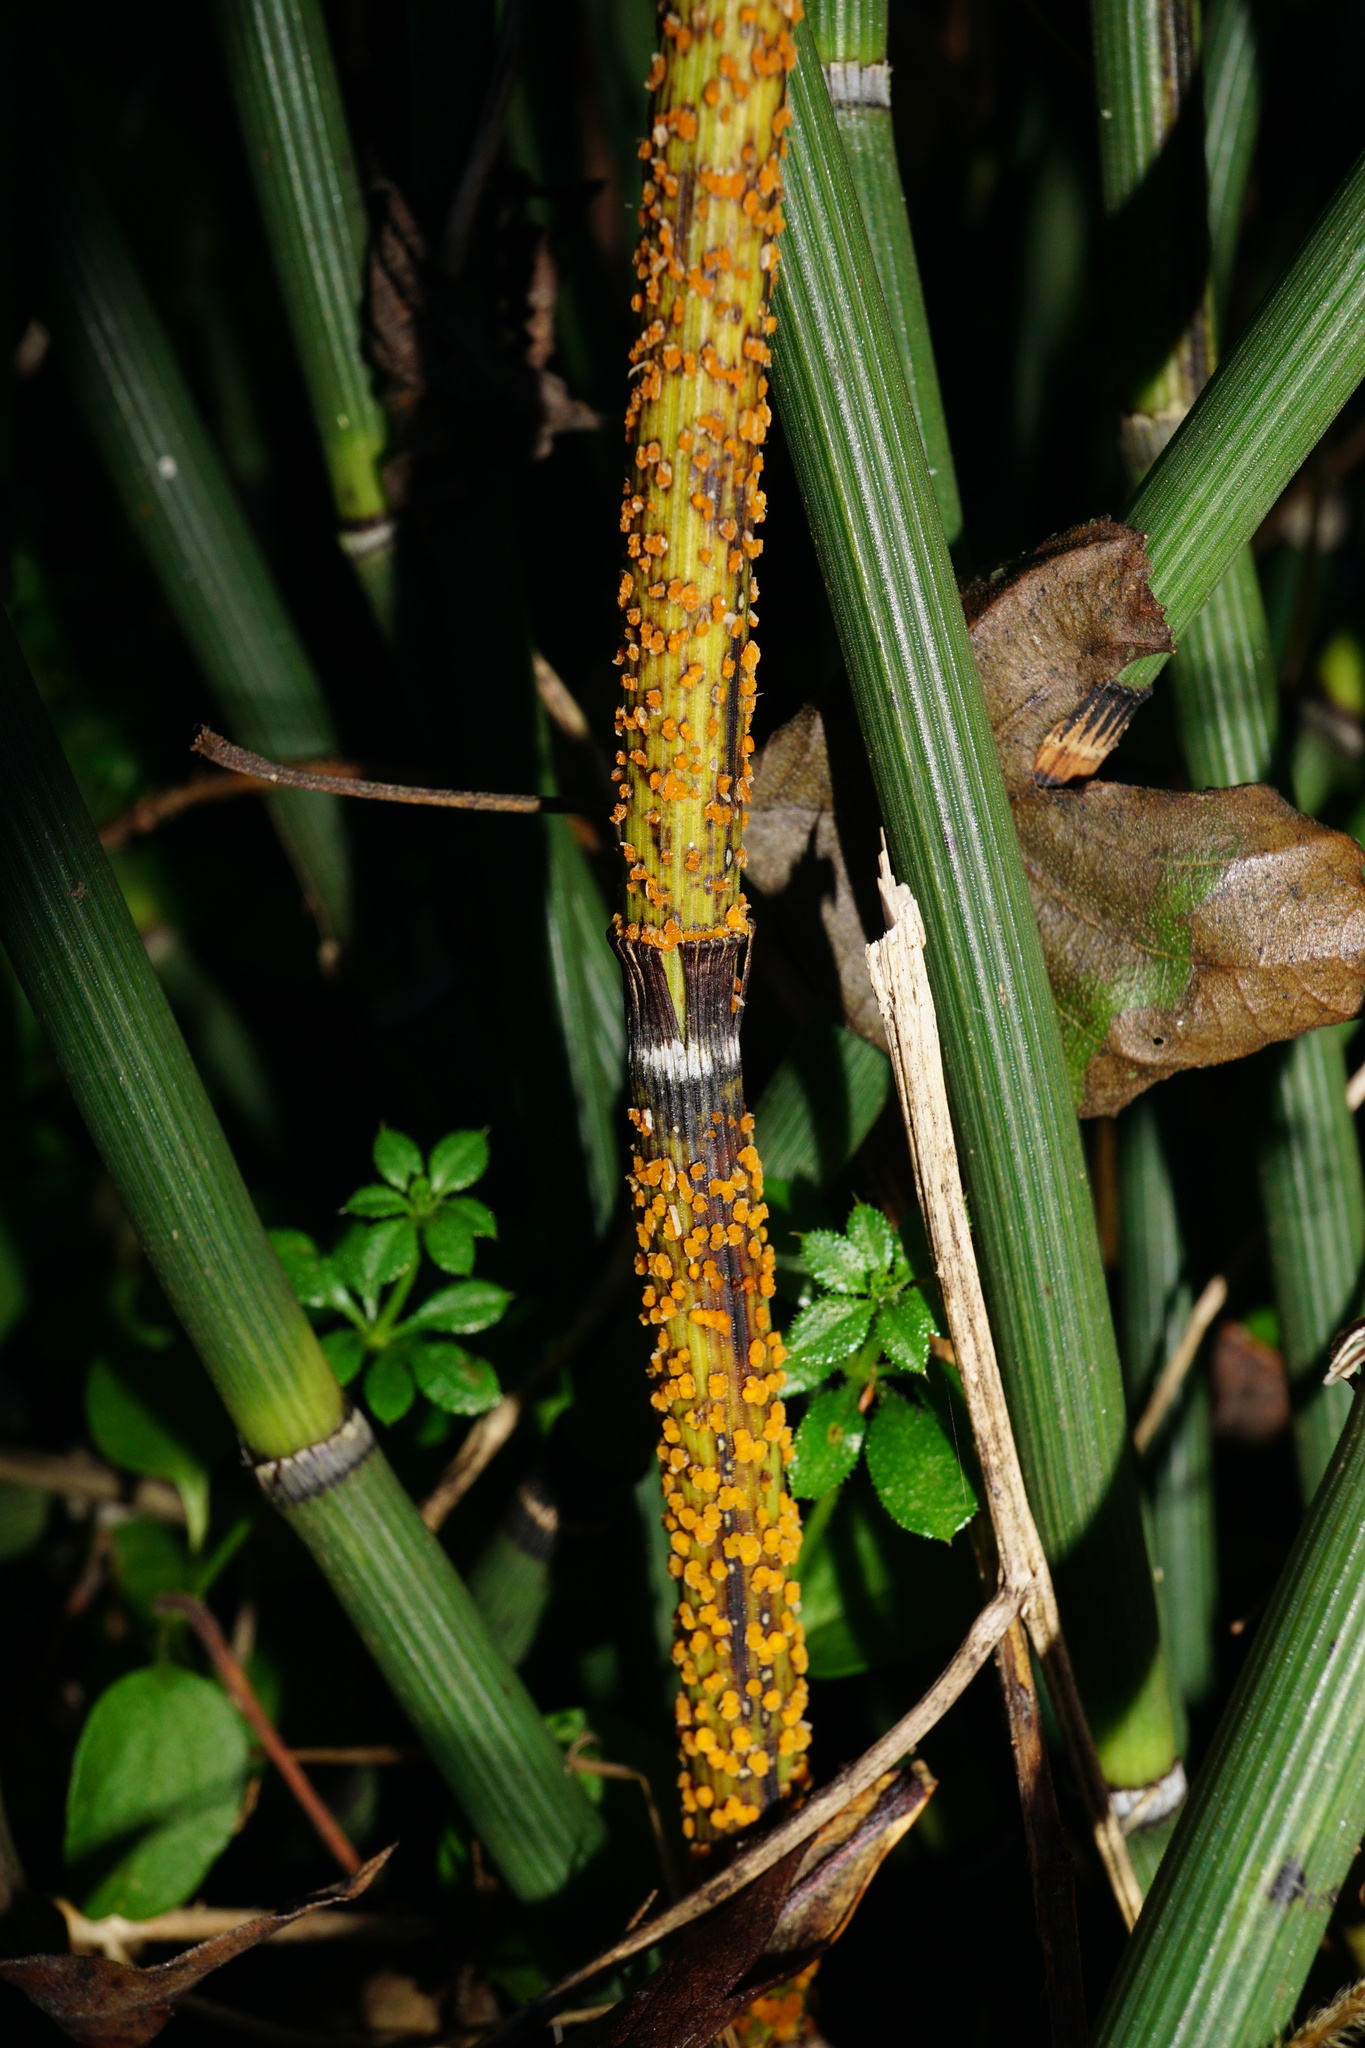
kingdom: Fungi
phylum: Ascomycota
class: Leotiomycetes
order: Helotiales
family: Helotiaceae
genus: Stamnaria
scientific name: Stamnaria americana
